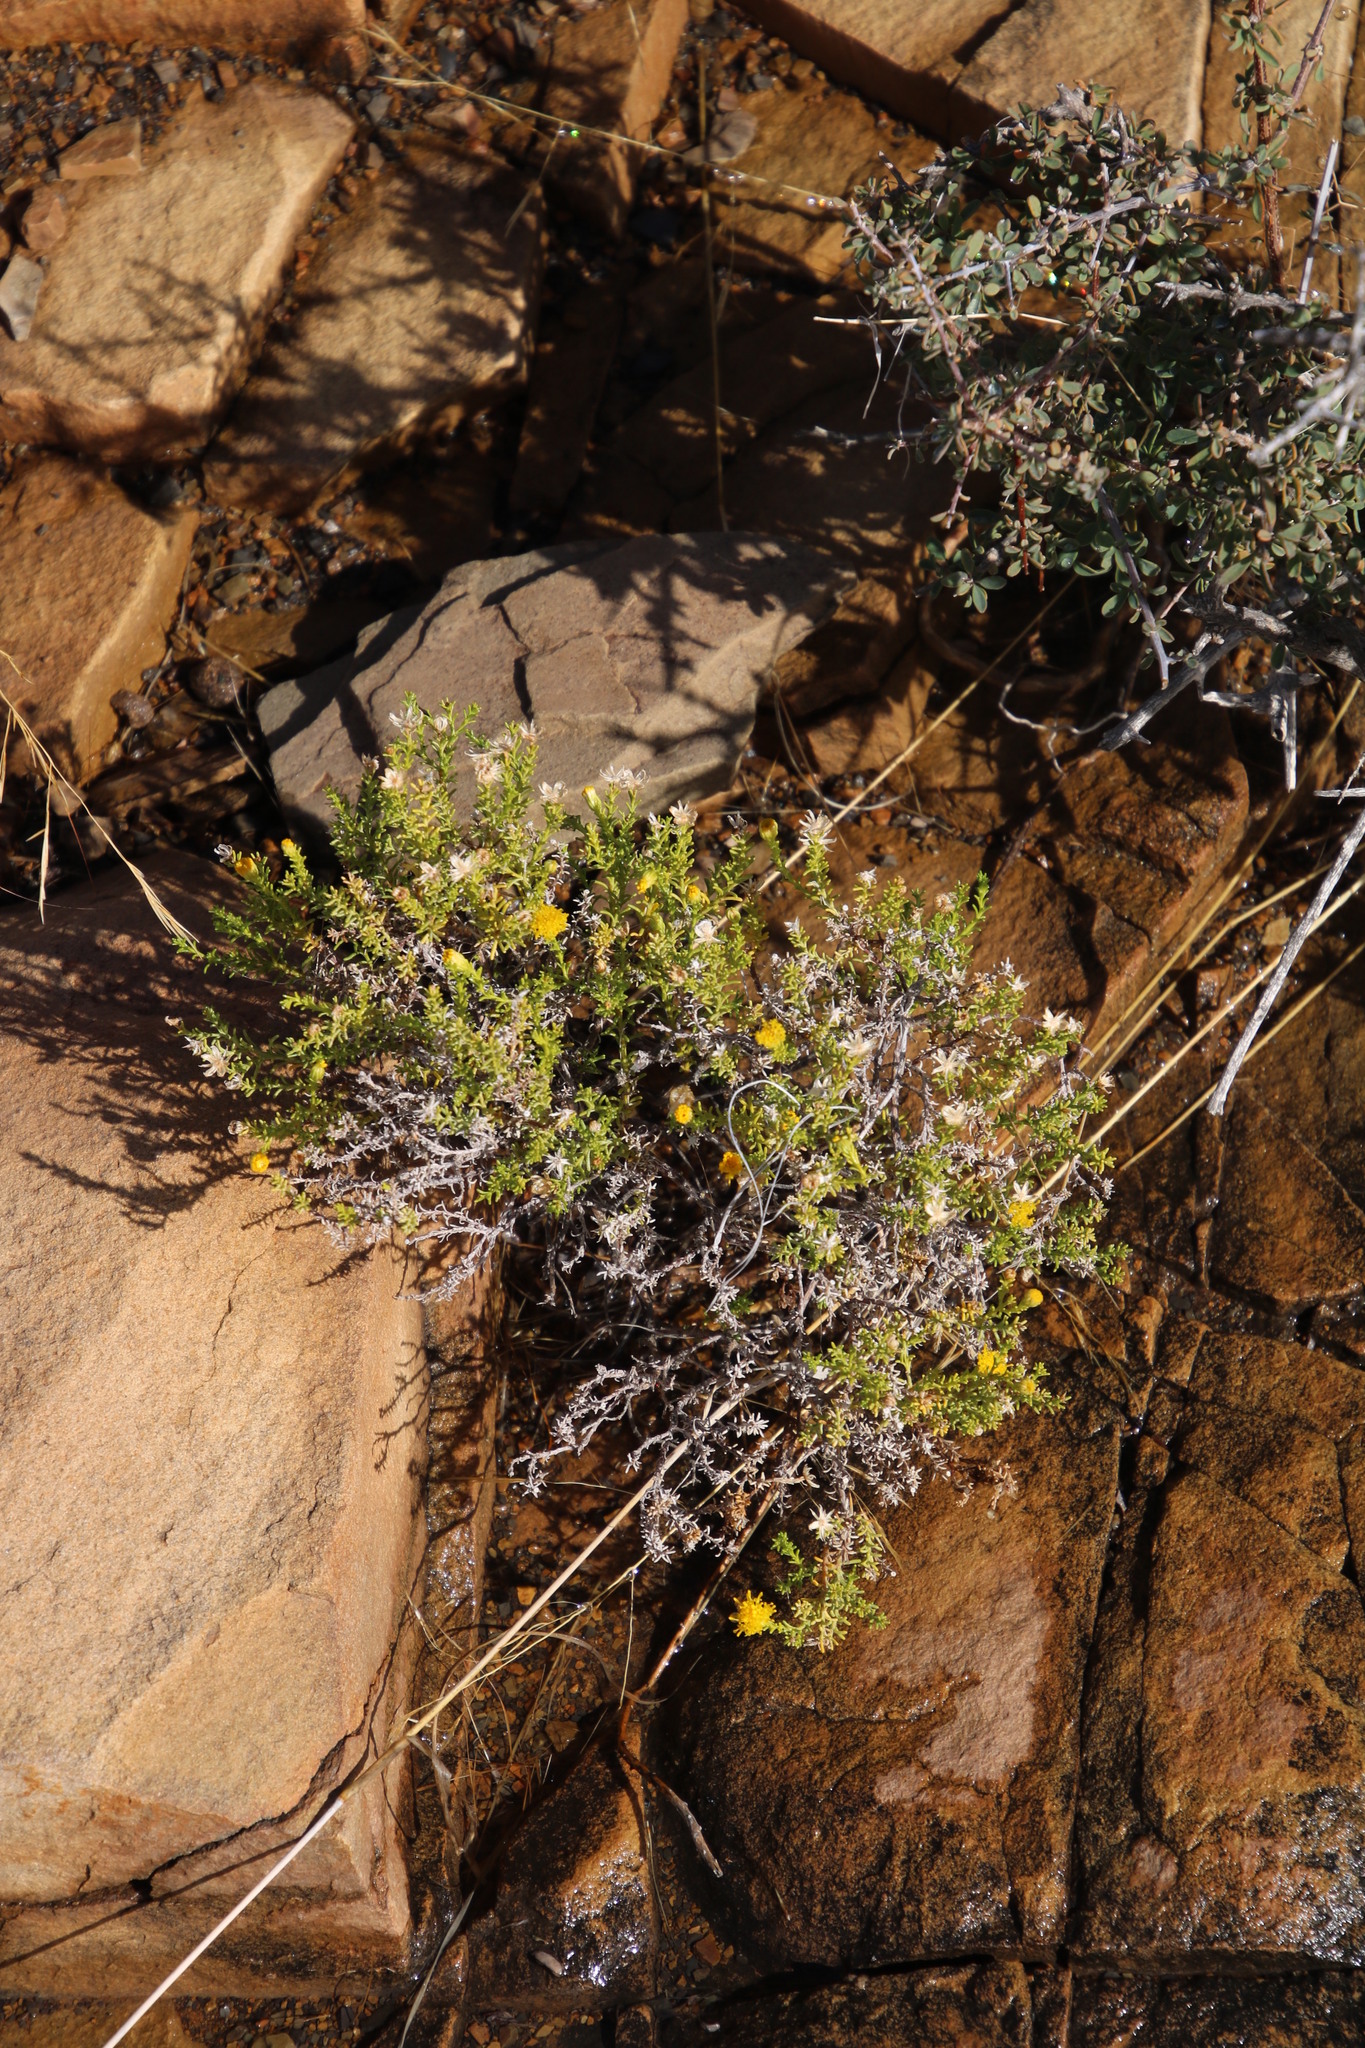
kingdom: Plantae
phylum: Tracheophyta
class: Magnoliopsida
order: Asterales
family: Asteraceae
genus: Chrysocoma
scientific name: Chrysocoma ciliata
